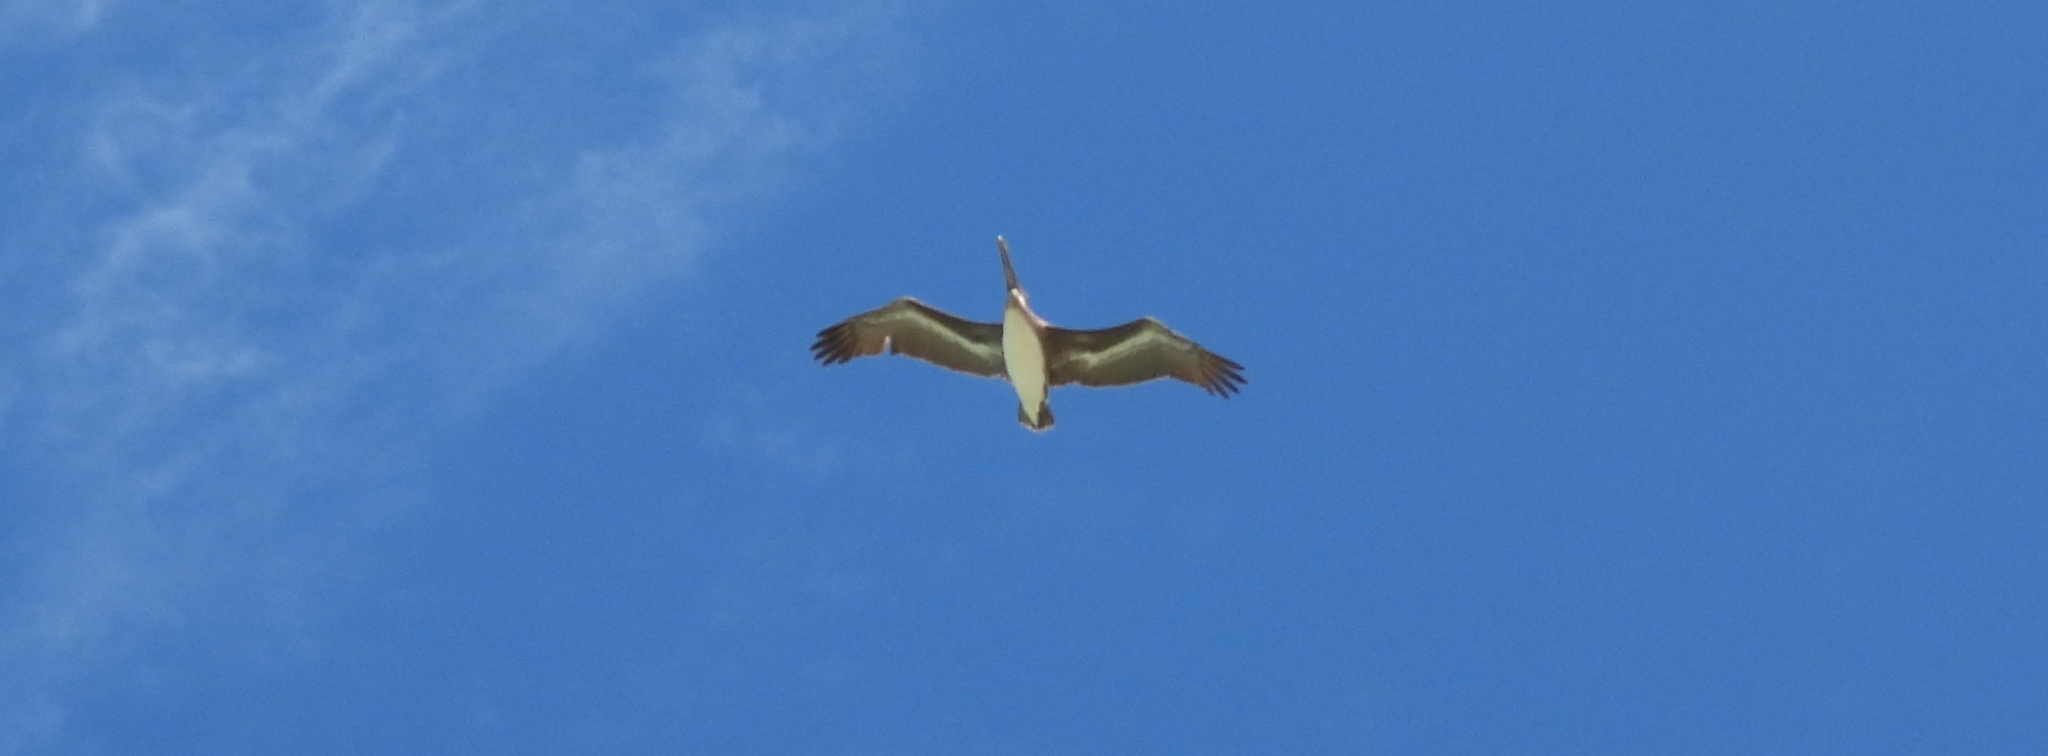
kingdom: Animalia
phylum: Chordata
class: Aves
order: Pelecaniformes
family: Pelecanidae
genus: Pelecanus
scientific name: Pelecanus occidentalis
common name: Brown pelican
